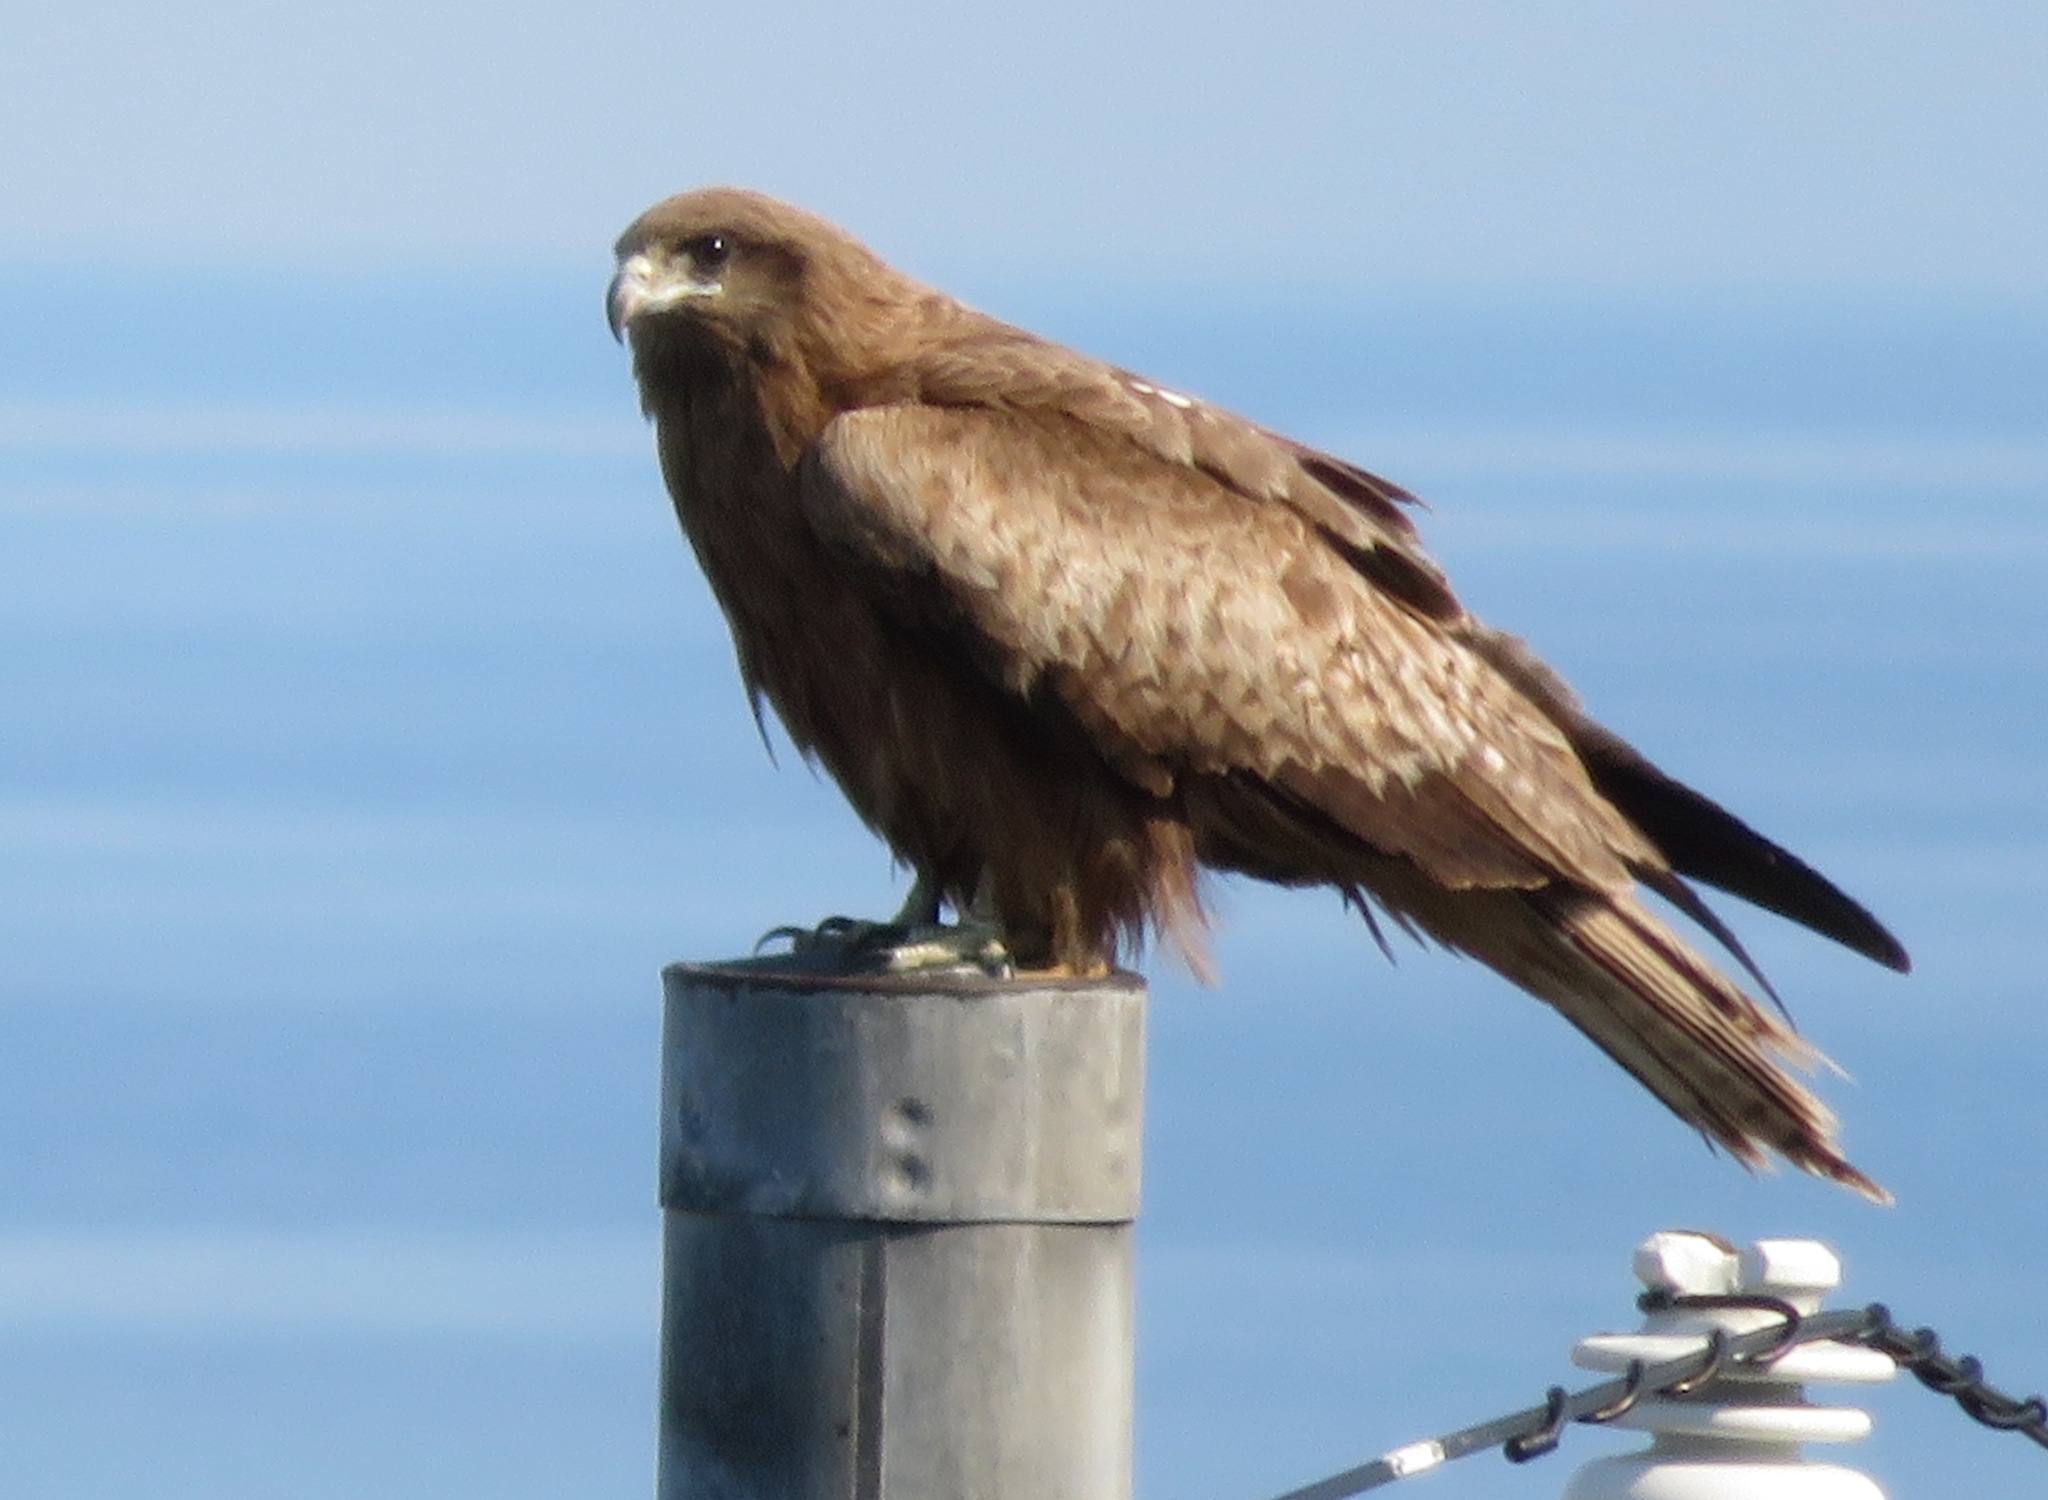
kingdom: Animalia
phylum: Chordata
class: Aves
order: Accipitriformes
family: Accipitridae
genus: Milvus
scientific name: Milvus migrans
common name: Black kite
